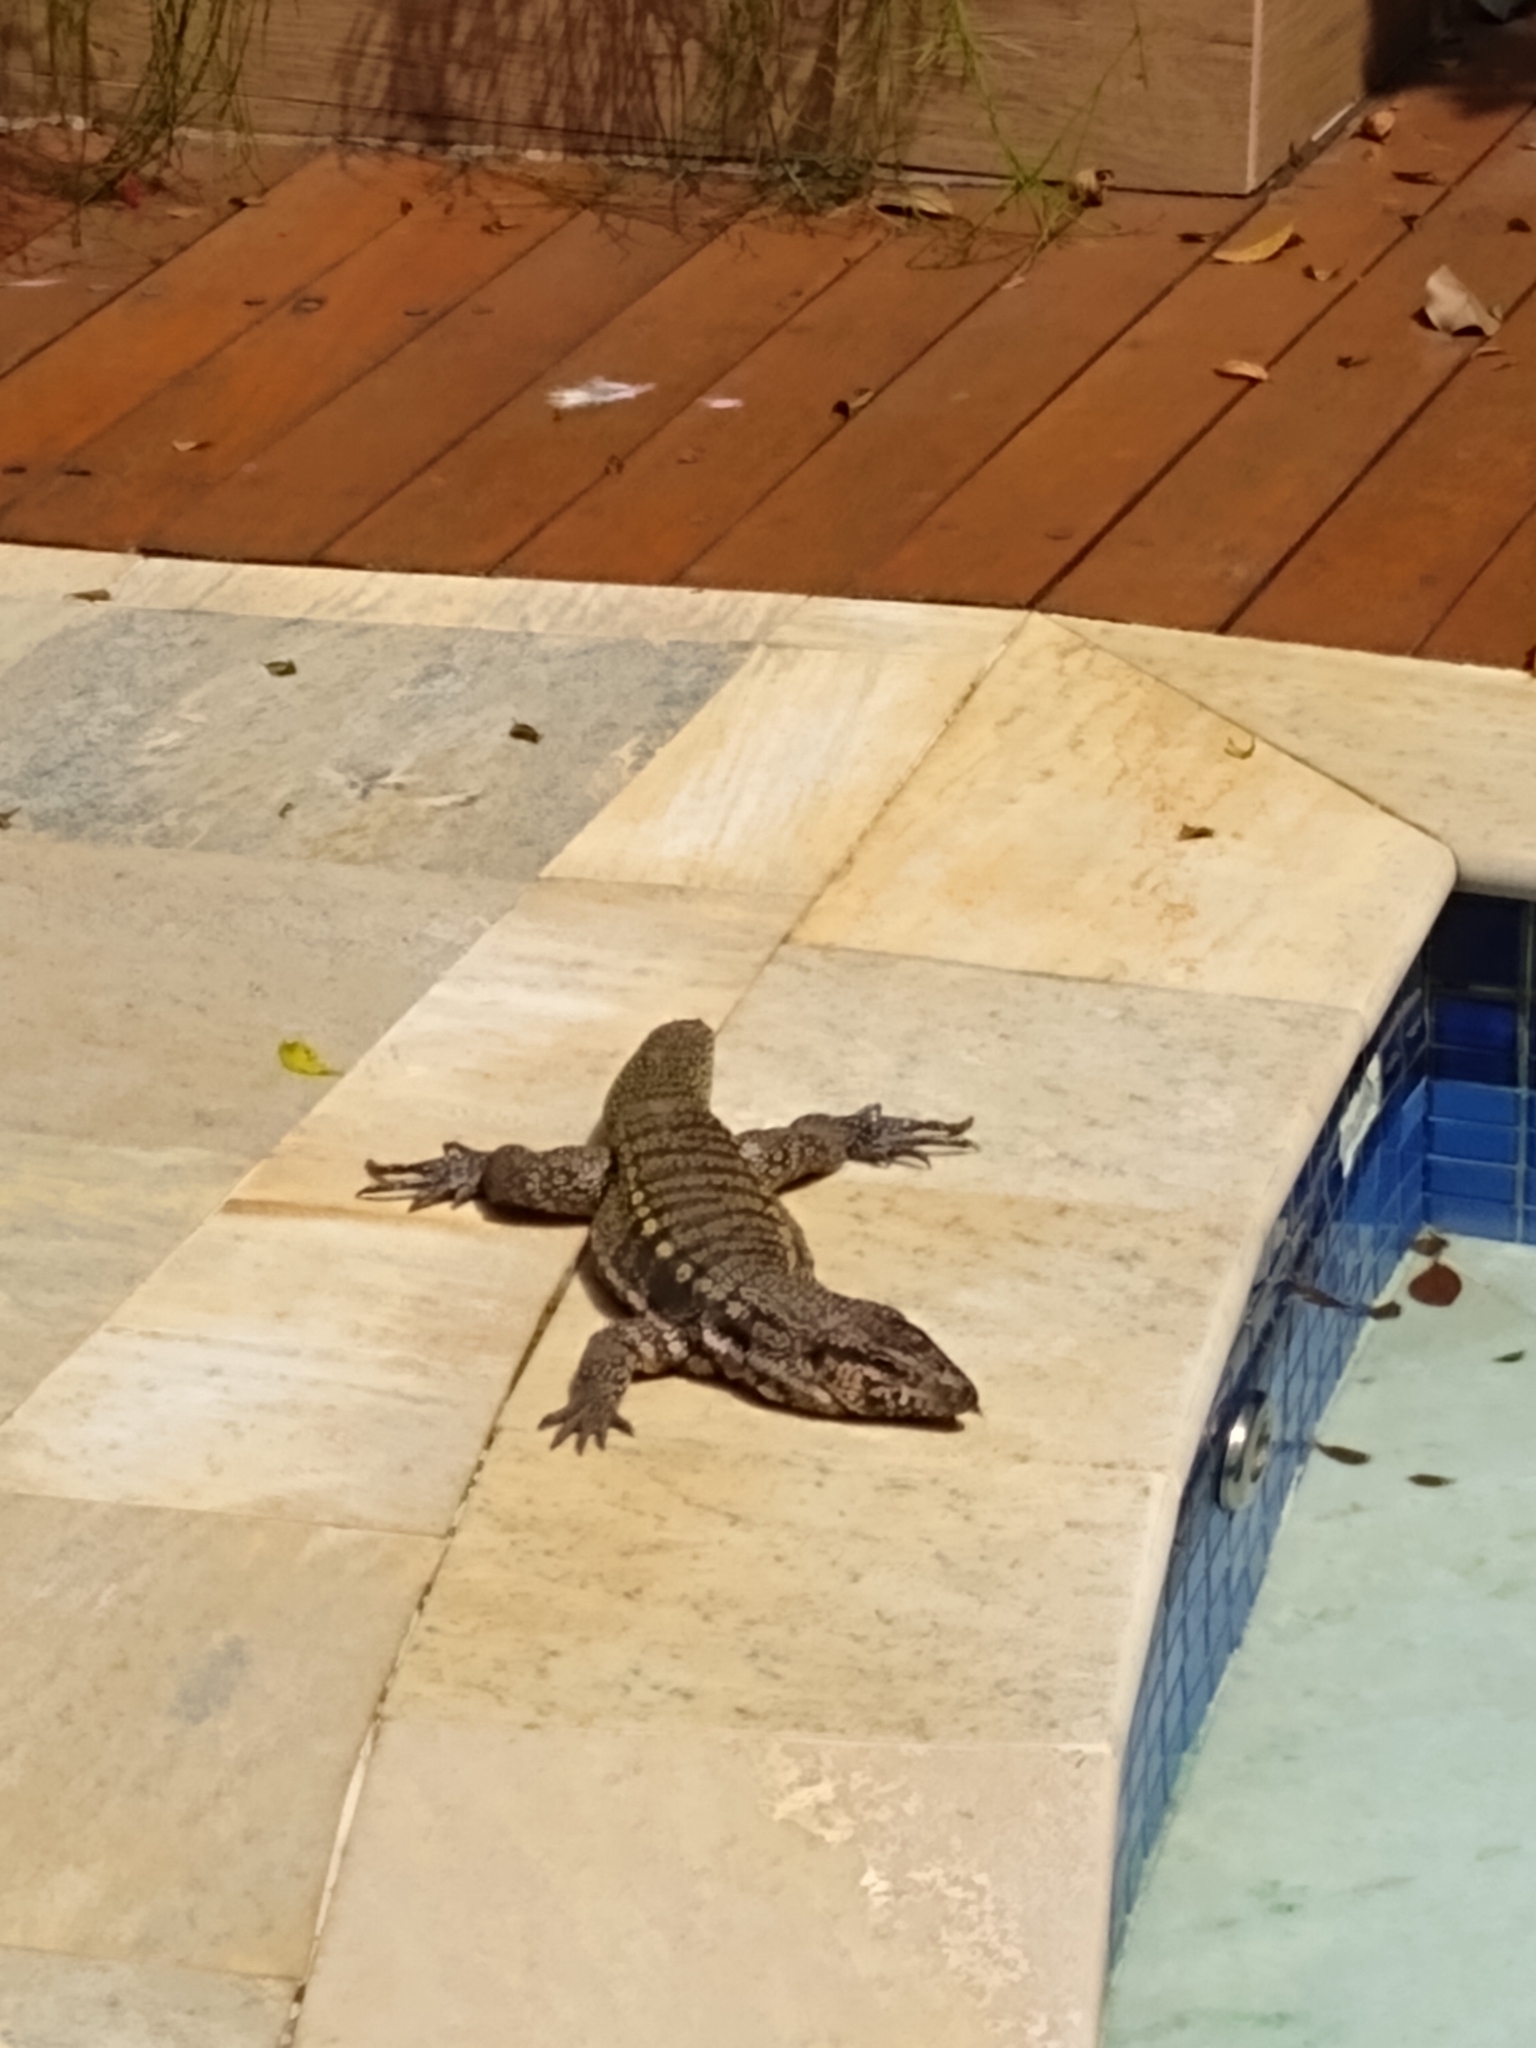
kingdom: Animalia
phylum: Chordata
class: Squamata
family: Teiidae
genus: Salvator
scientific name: Salvator merianae
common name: Argentine black and white tegu
